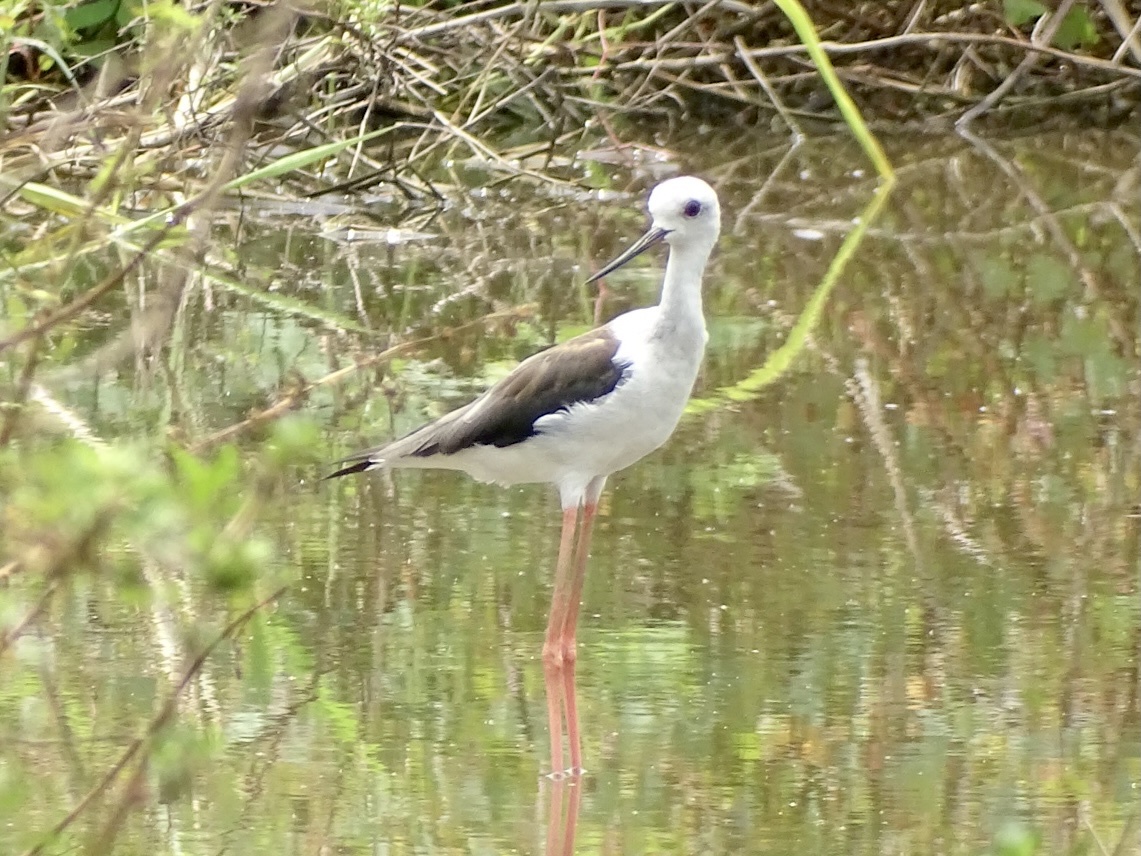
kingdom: Animalia
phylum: Chordata
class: Aves
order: Charadriiformes
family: Recurvirostridae
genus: Himantopus
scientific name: Himantopus himantopus
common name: Black-winged stilt
